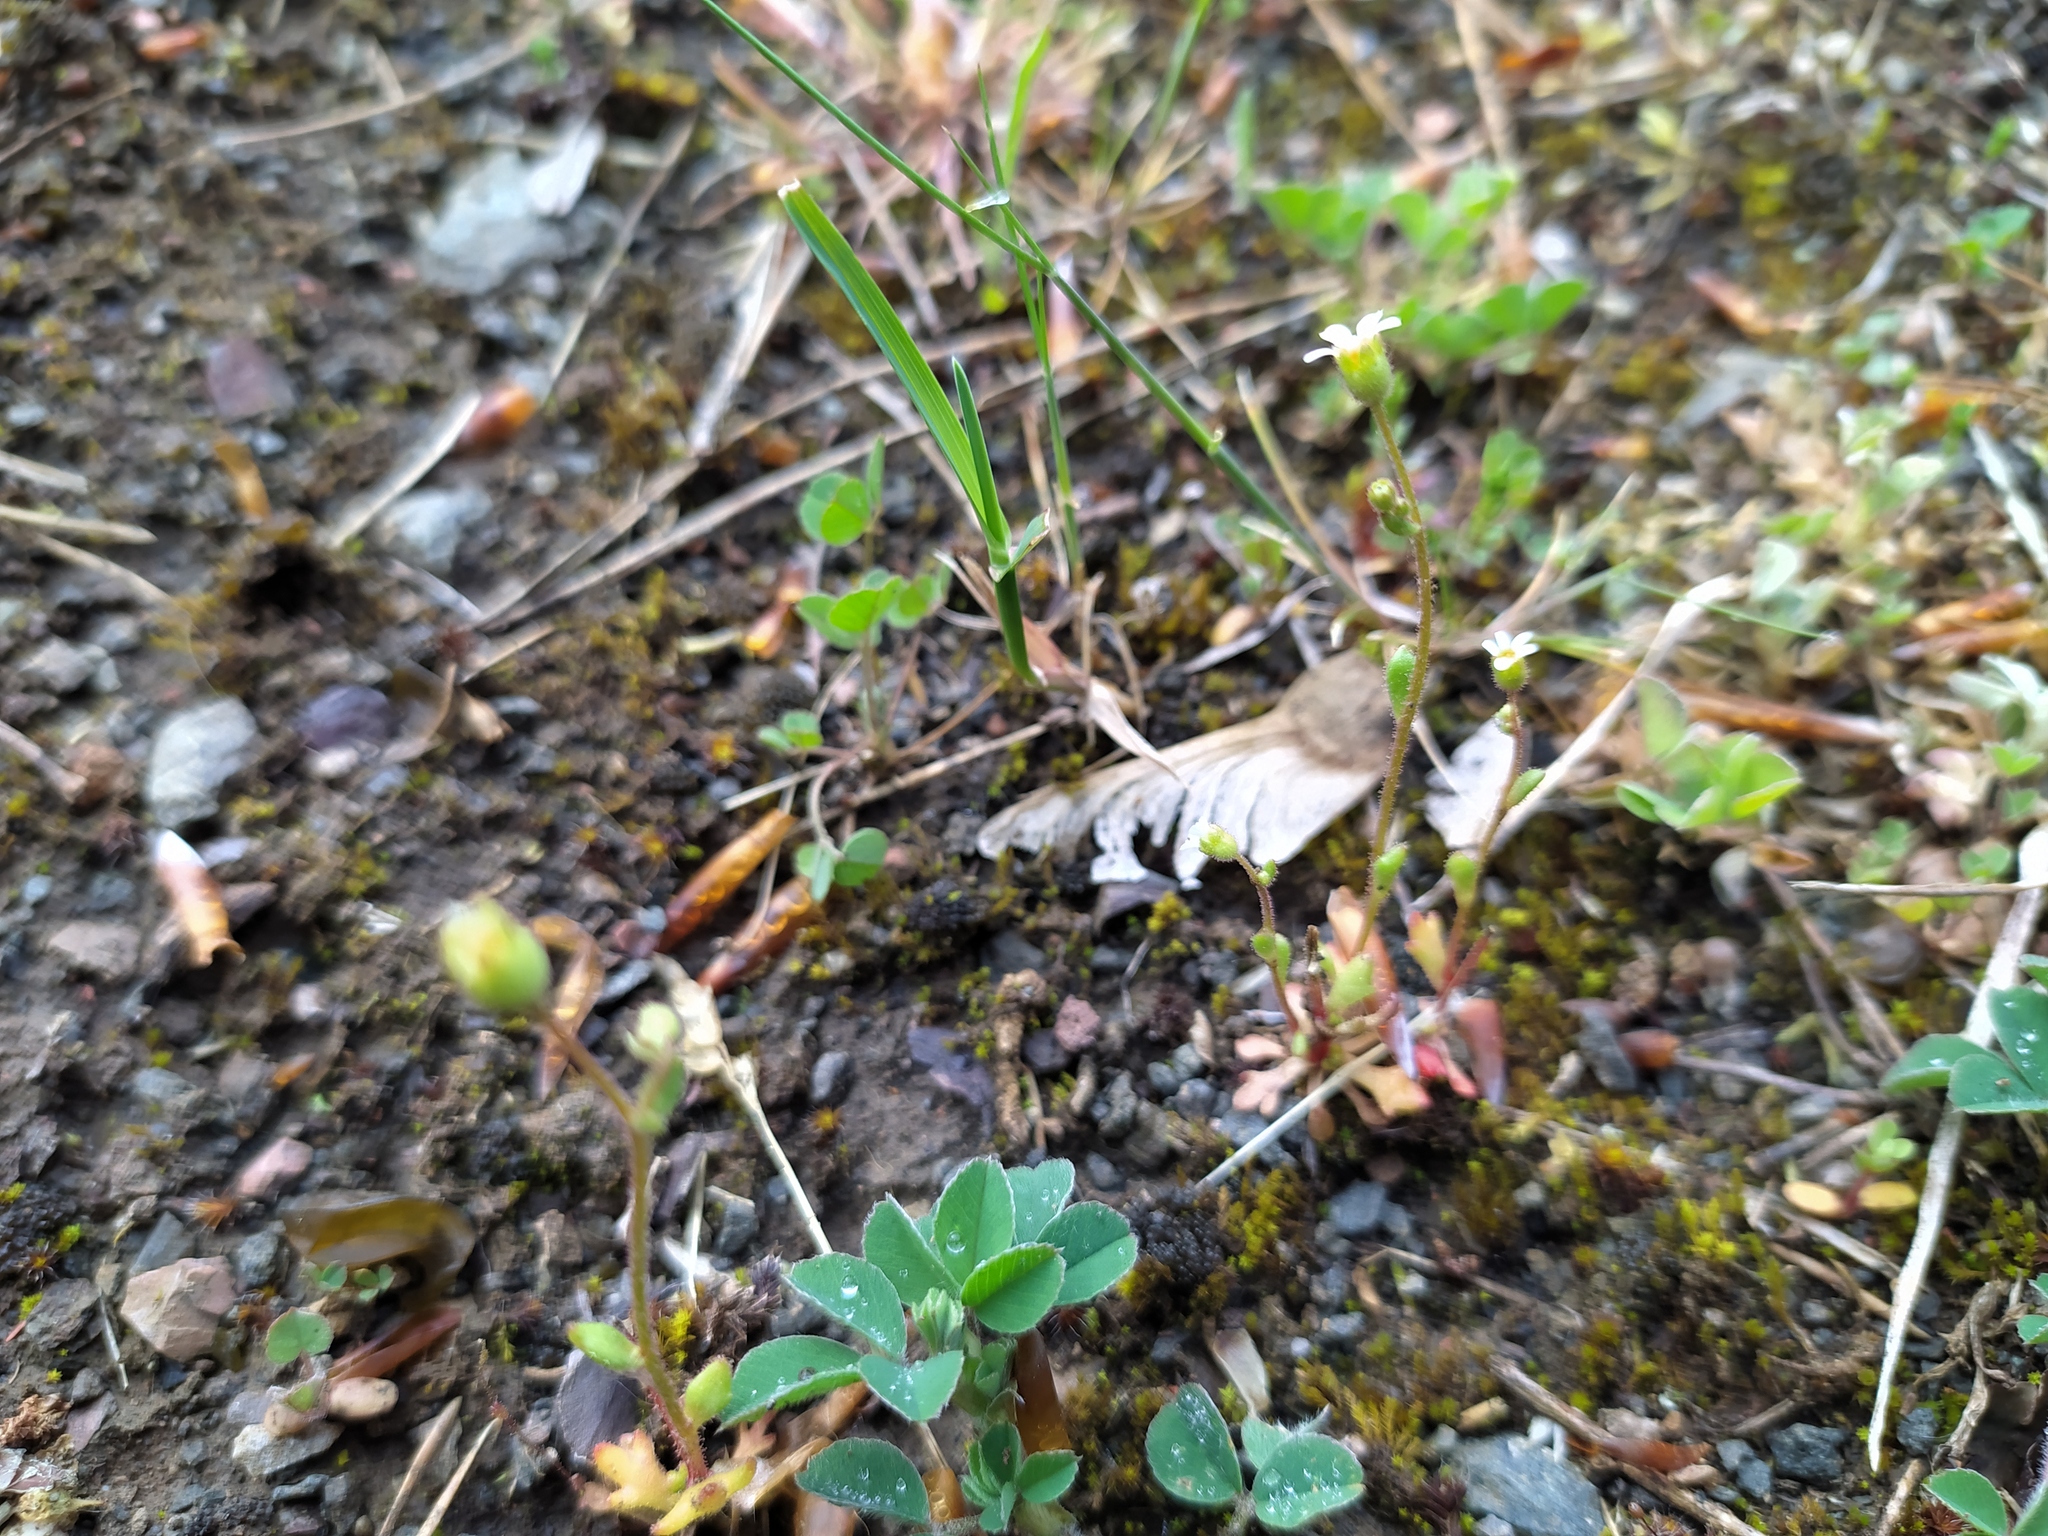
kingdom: Plantae
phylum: Tracheophyta
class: Magnoliopsida
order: Saxifragales
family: Saxifragaceae
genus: Saxifraga
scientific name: Saxifraga tridactylites
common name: Rue-leaved saxifrage
